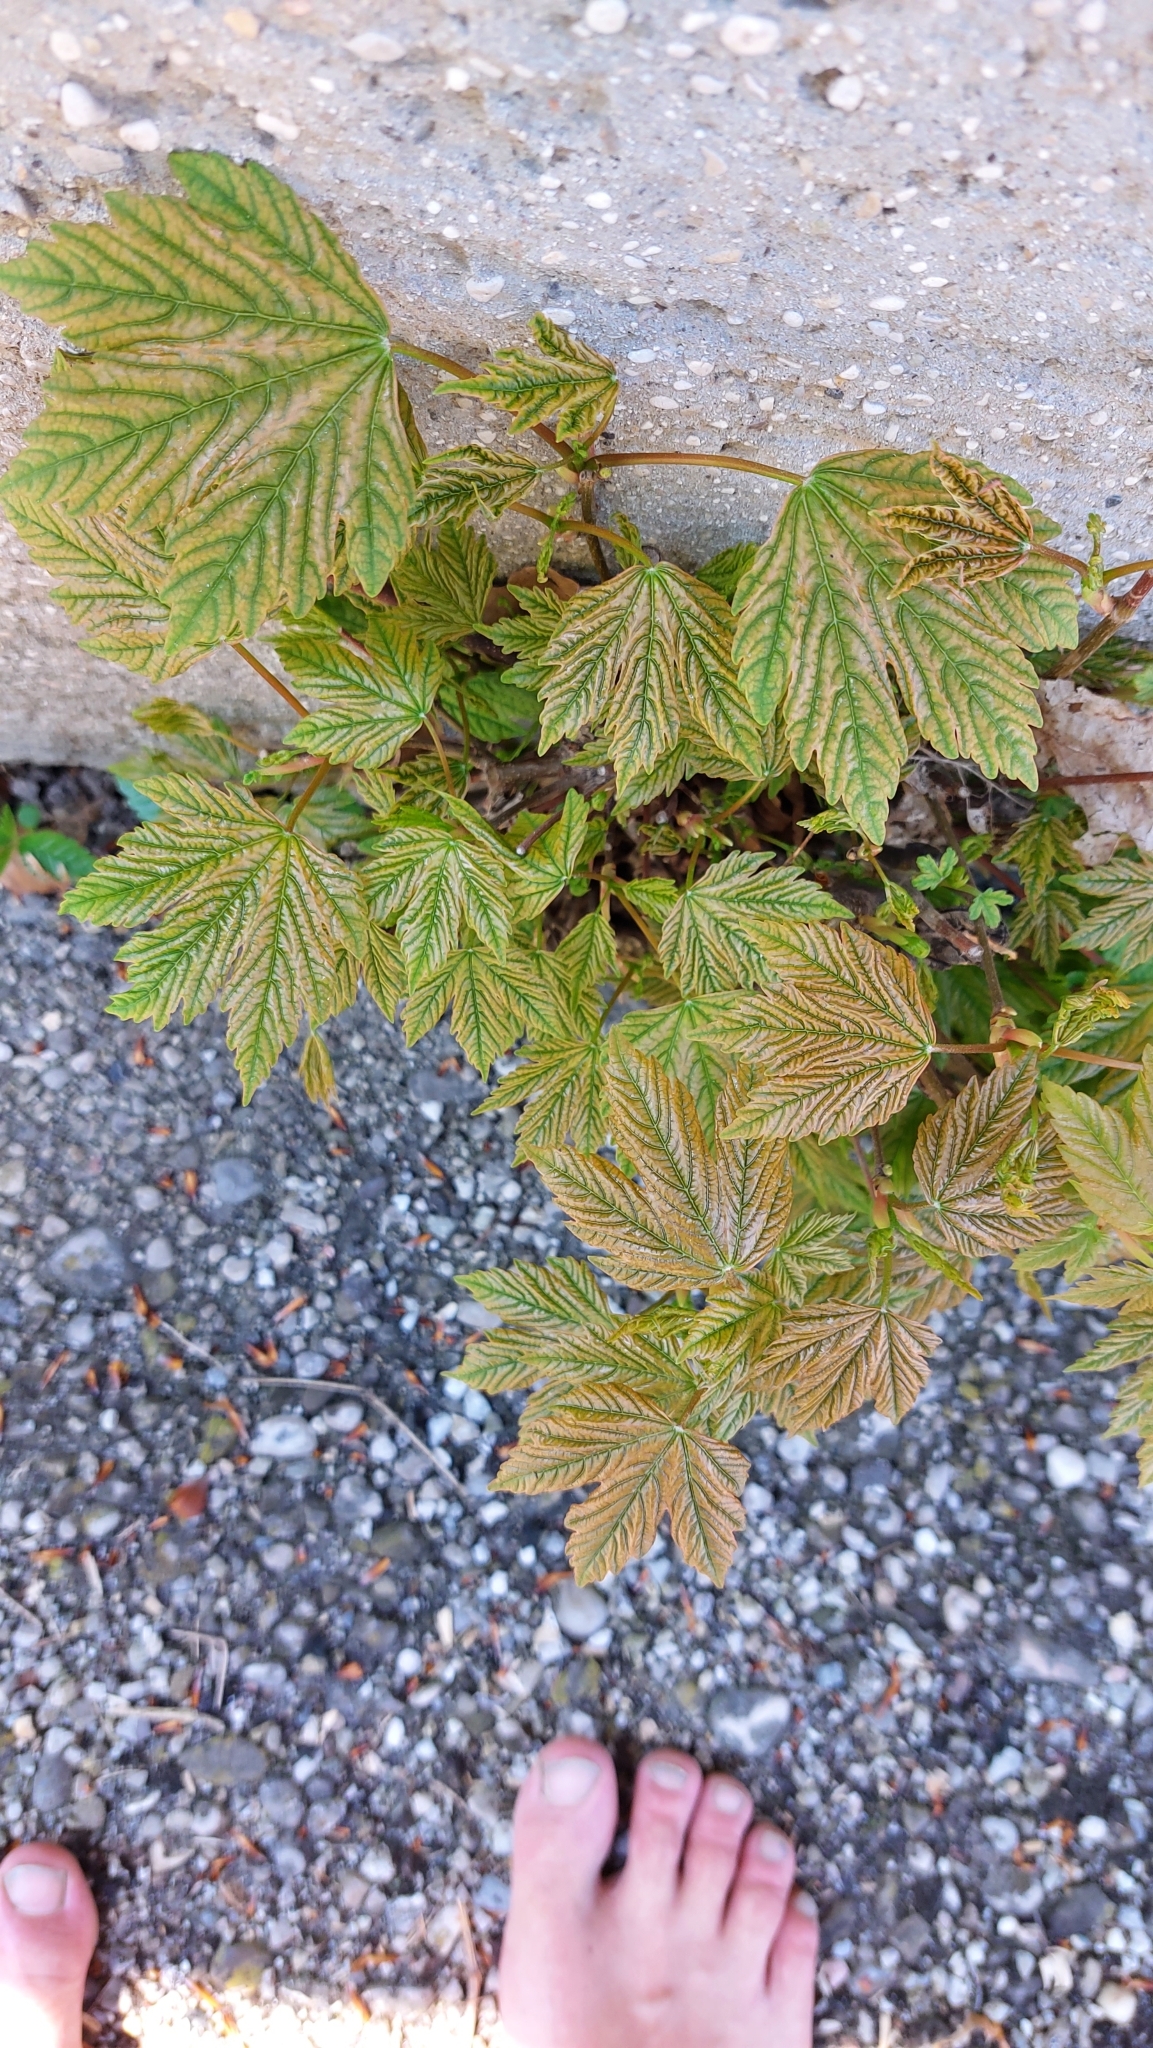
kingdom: Plantae
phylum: Tracheophyta
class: Magnoliopsida
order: Sapindales
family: Sapindaceae
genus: Acer
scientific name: Acer pseudoplatanus
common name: Sycamore
